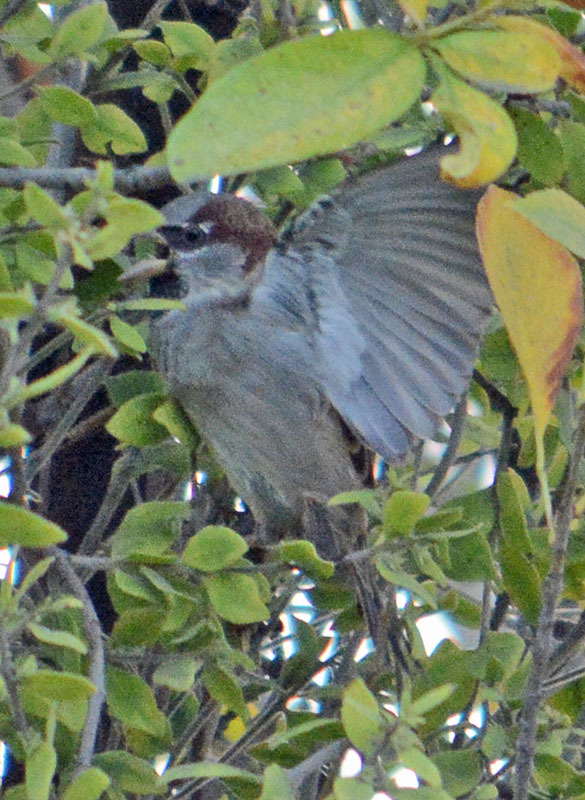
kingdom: Animalia
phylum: Chordata
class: Aves
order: Passeriformes
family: Passeridae
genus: Passer
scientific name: Passer domesticus
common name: House sparrow
